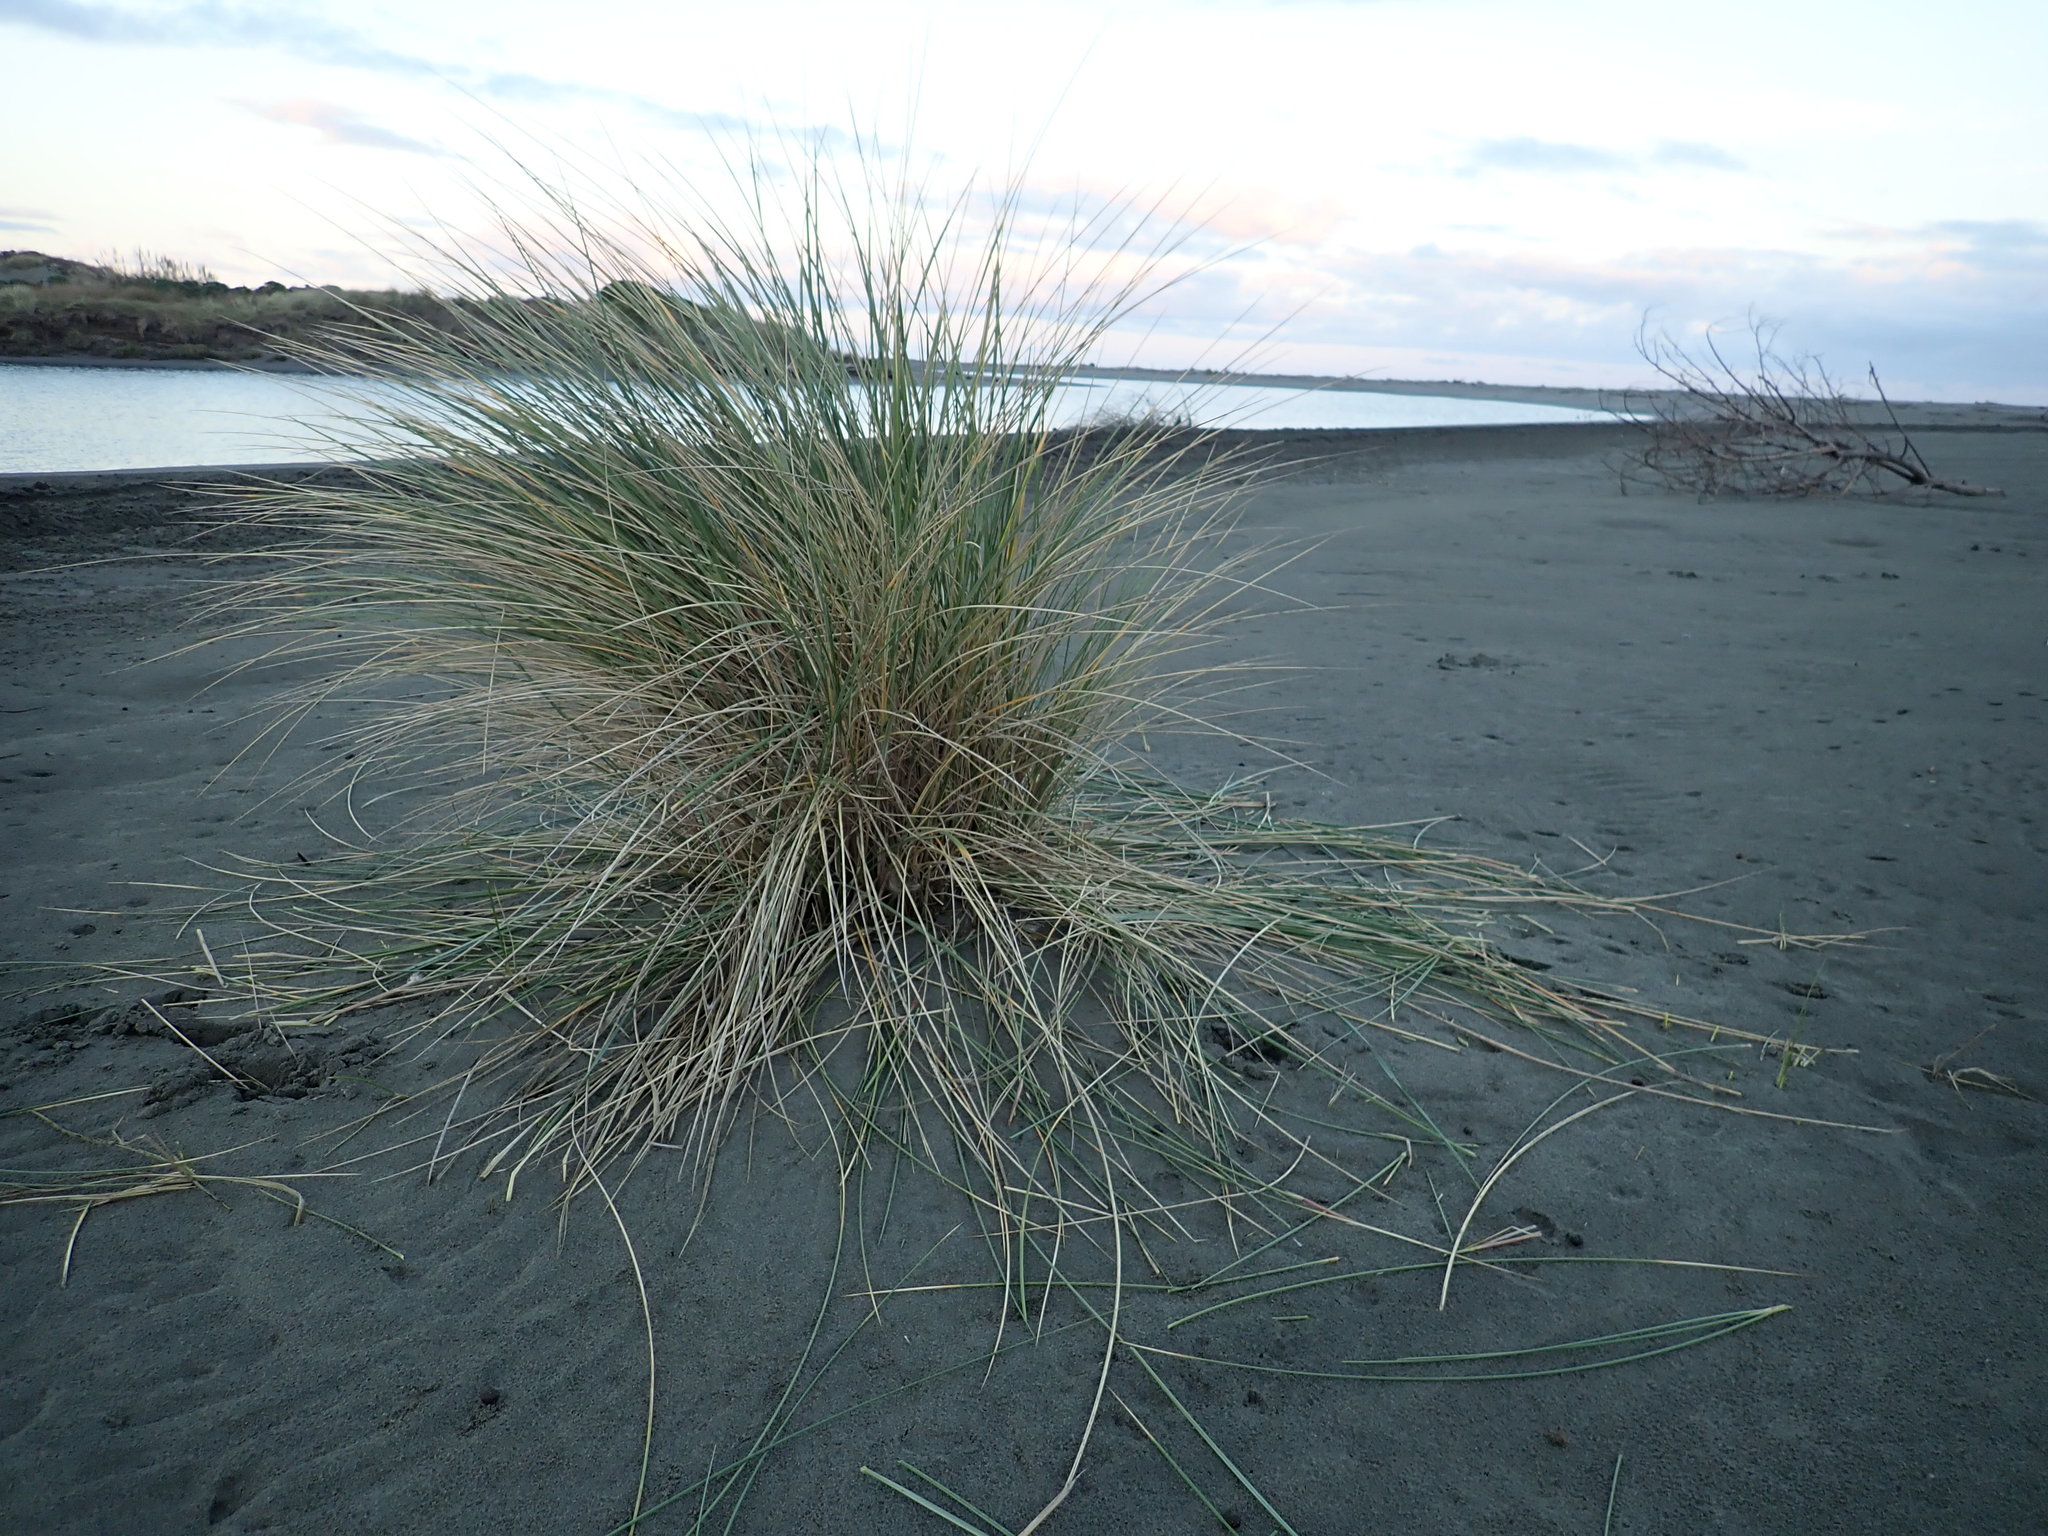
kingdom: Plantae
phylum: Tracheophyta
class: Liliopsida
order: Poales
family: Poaceae
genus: Calamagrostis
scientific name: Calamagrostis arenaria
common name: European beachgrass
